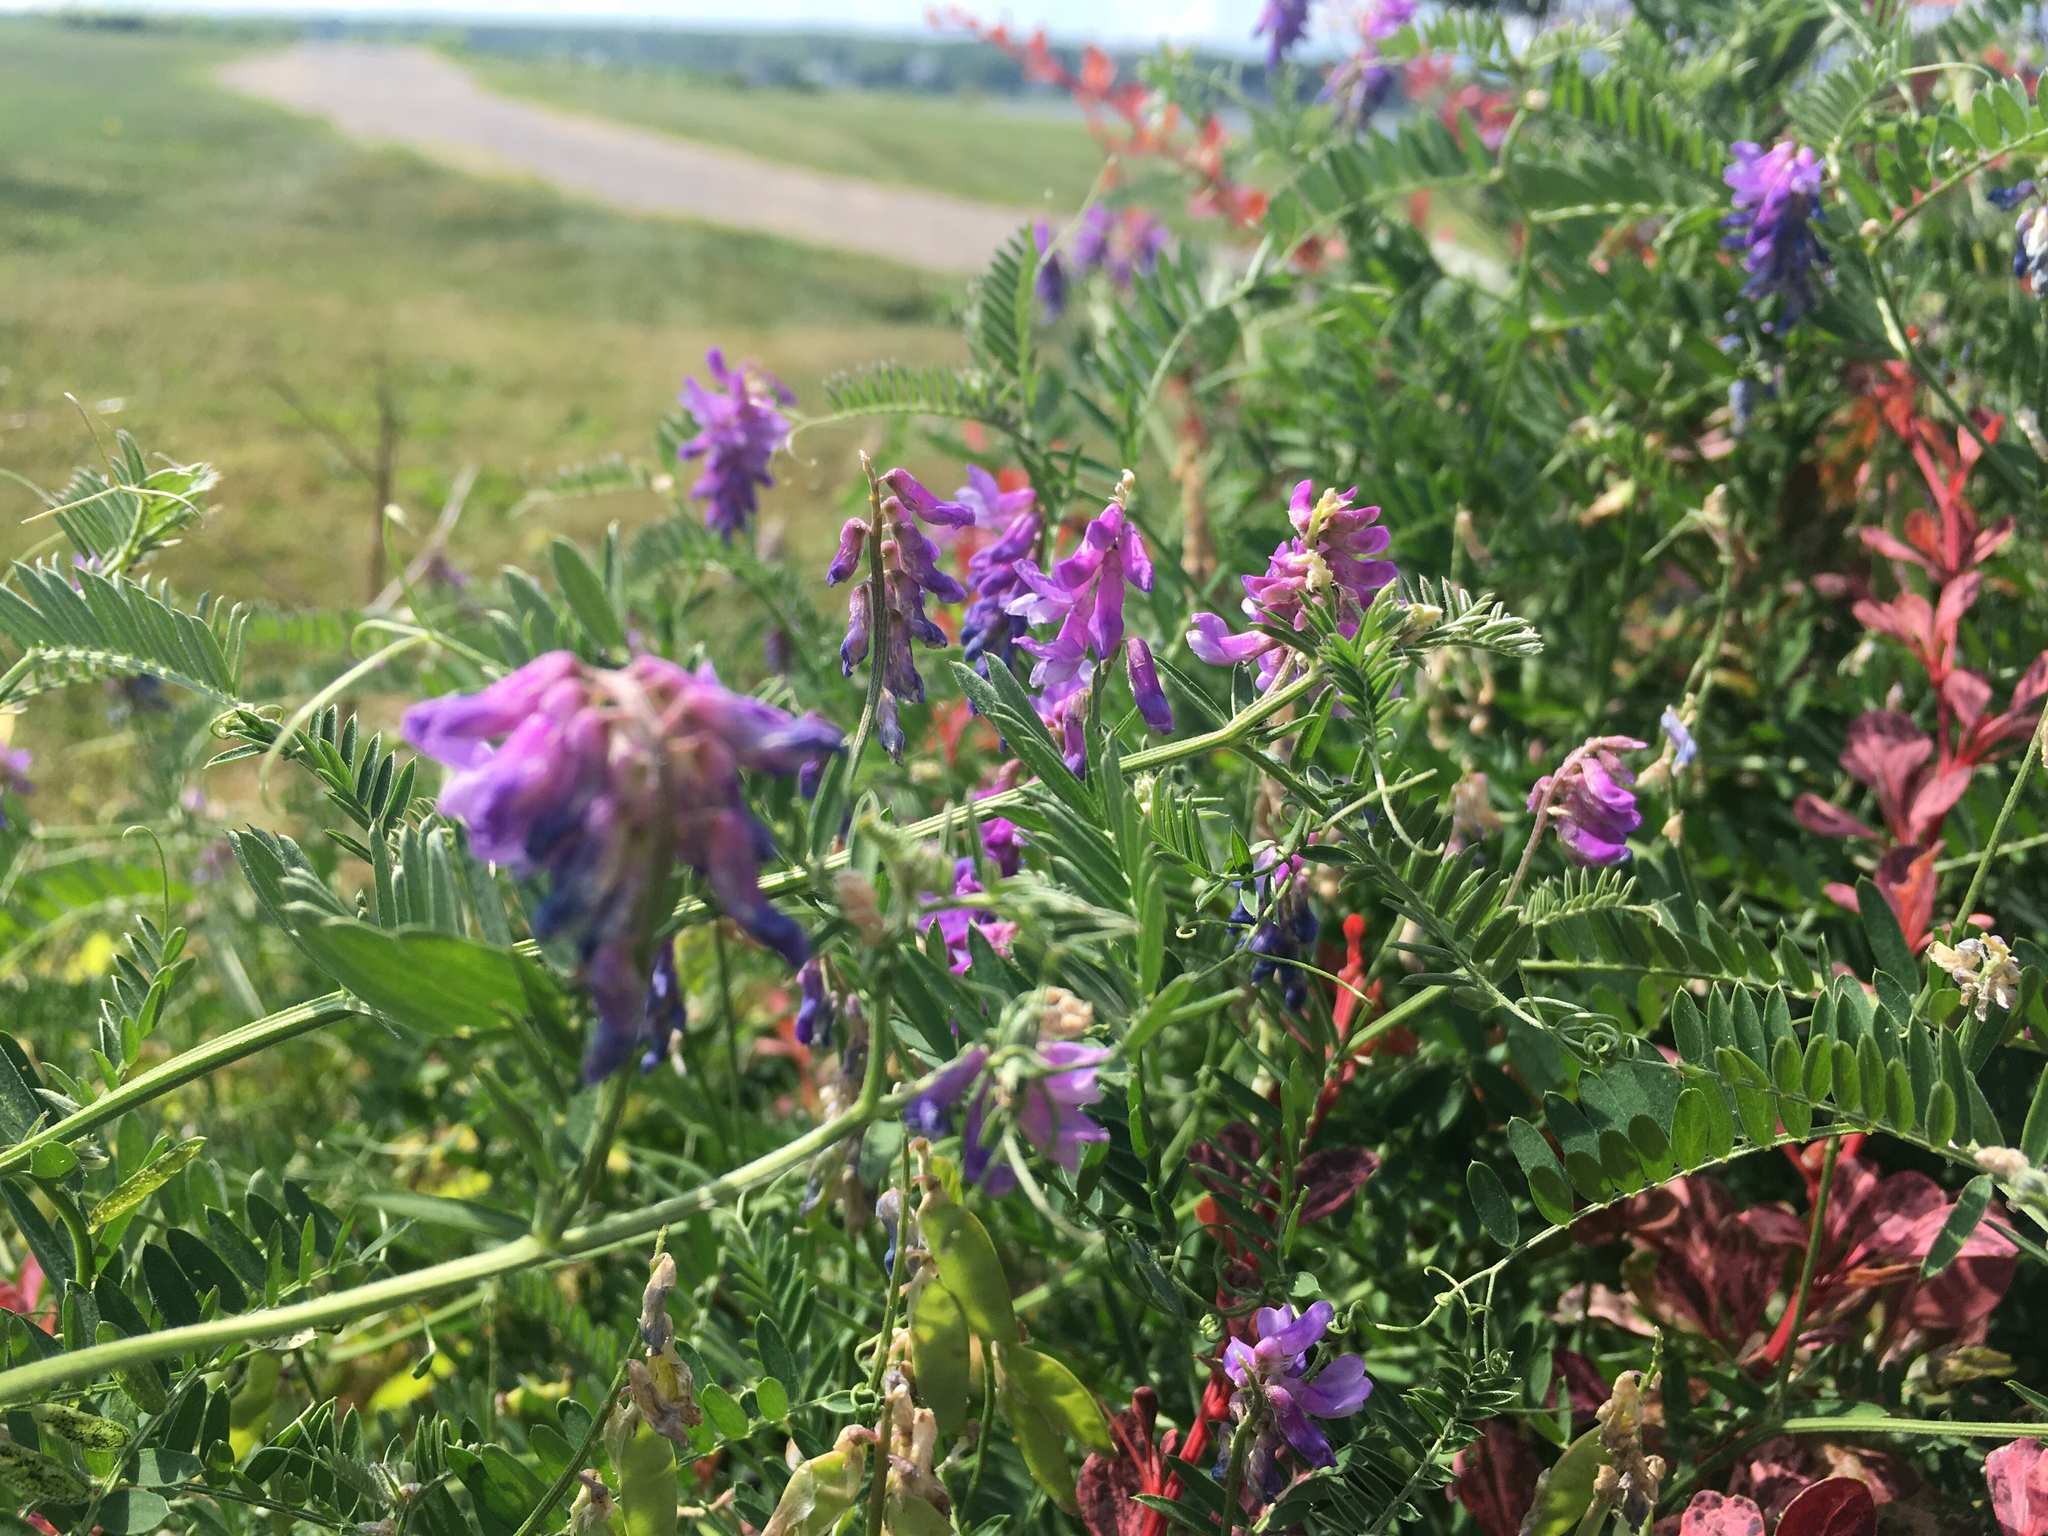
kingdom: Plantae
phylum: Tracheophyta
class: Magnoliopsida
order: Fabales
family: Fabaceae
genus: Vicia
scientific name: Vicia cracca
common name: Bird vetch
